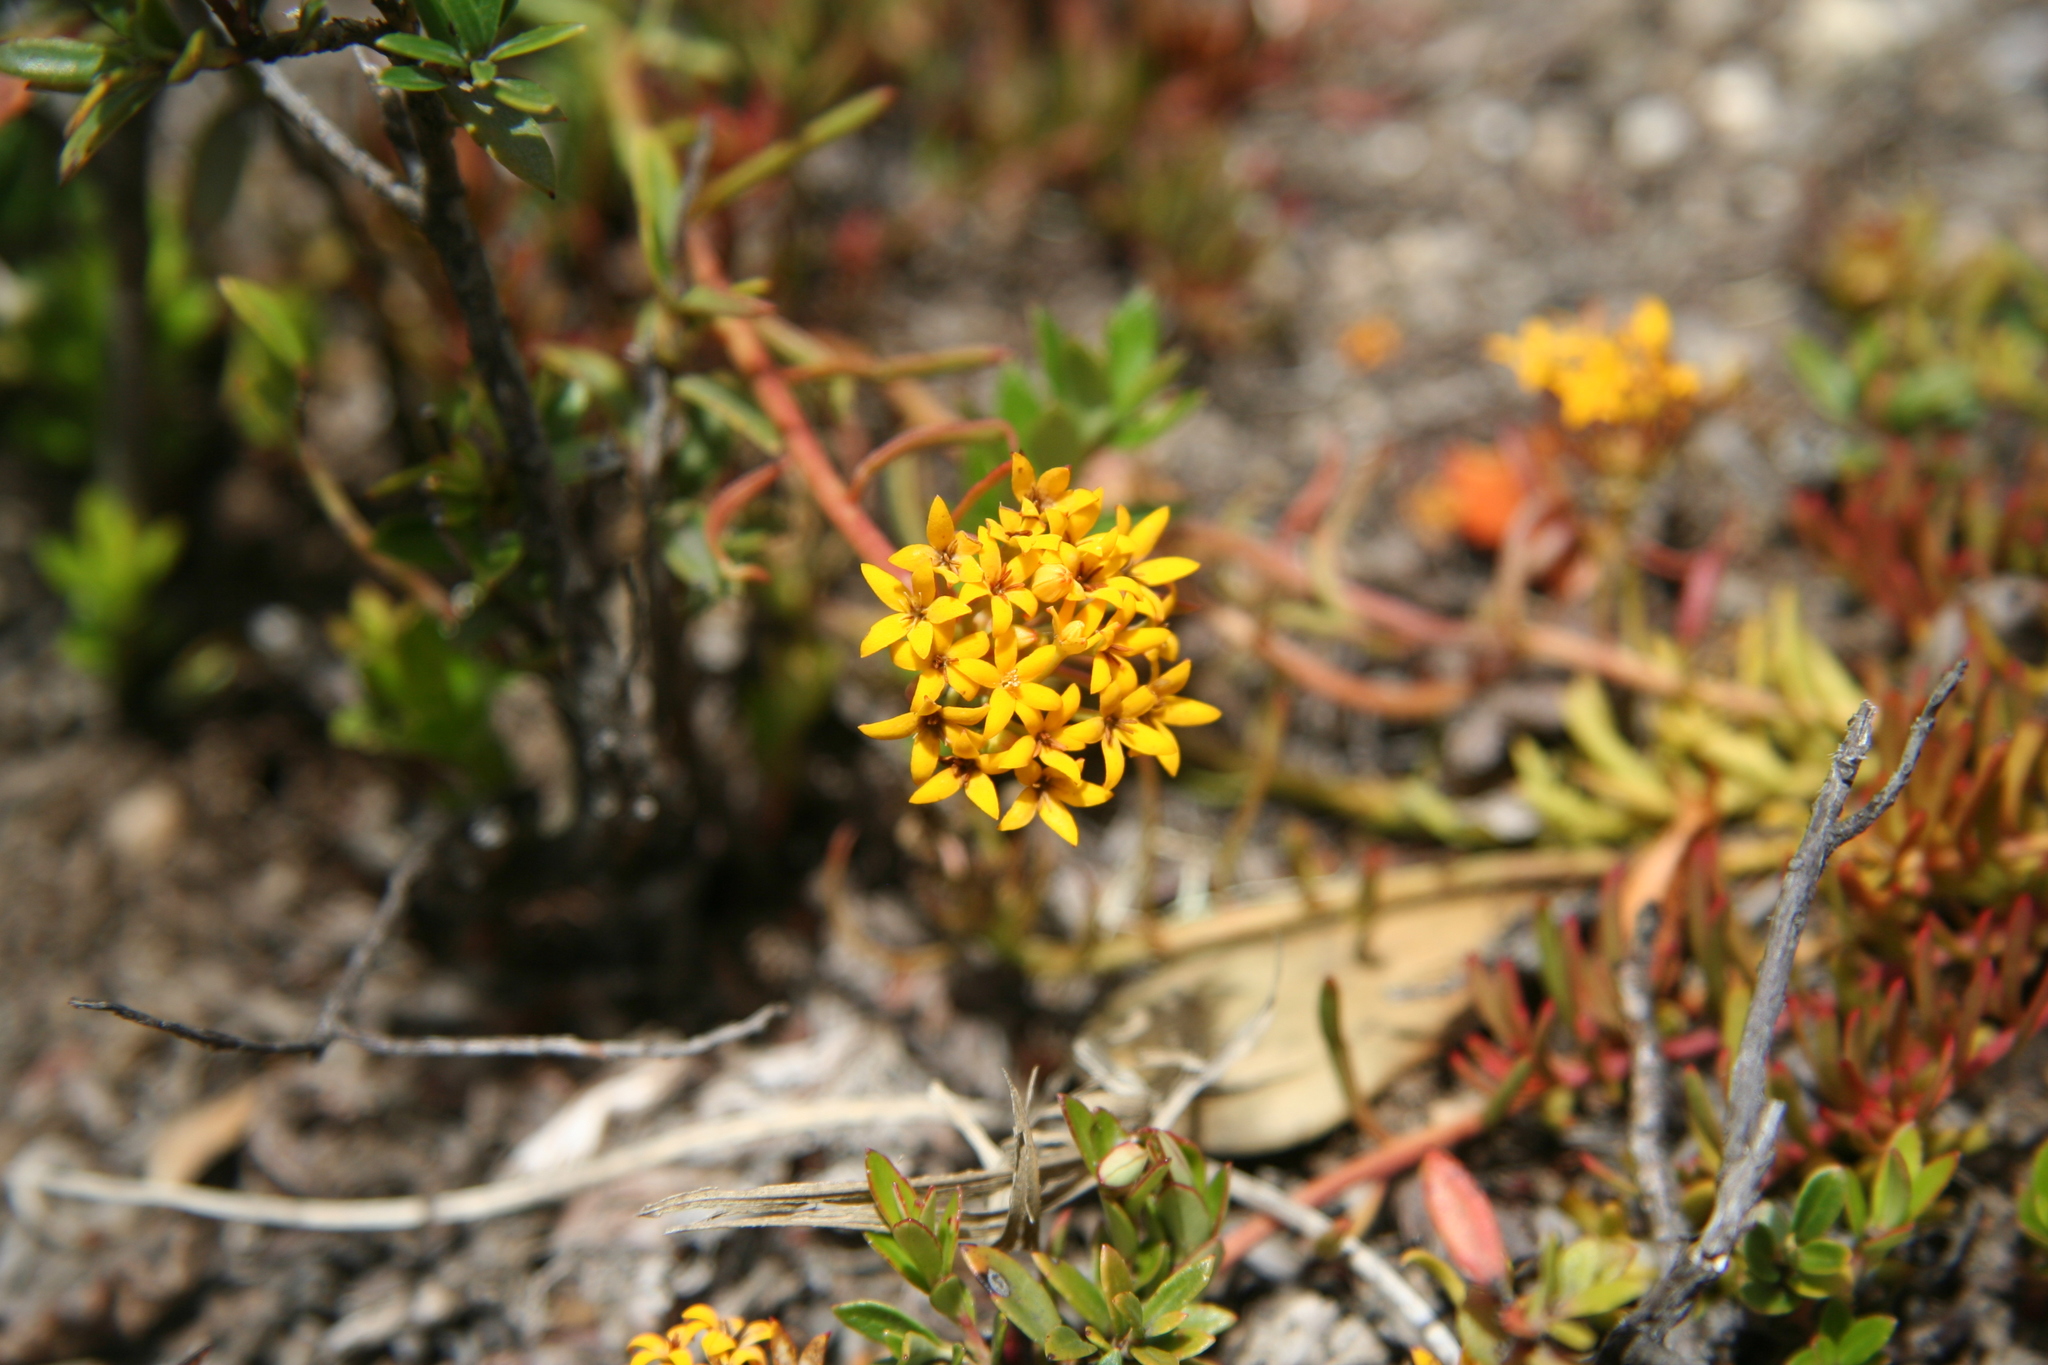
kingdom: Plantae
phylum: Tracheophyta
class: Magnoliopsida
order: Santalales
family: Schoepfiaceae
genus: Quinchamalium
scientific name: Quinchamalium chilense
